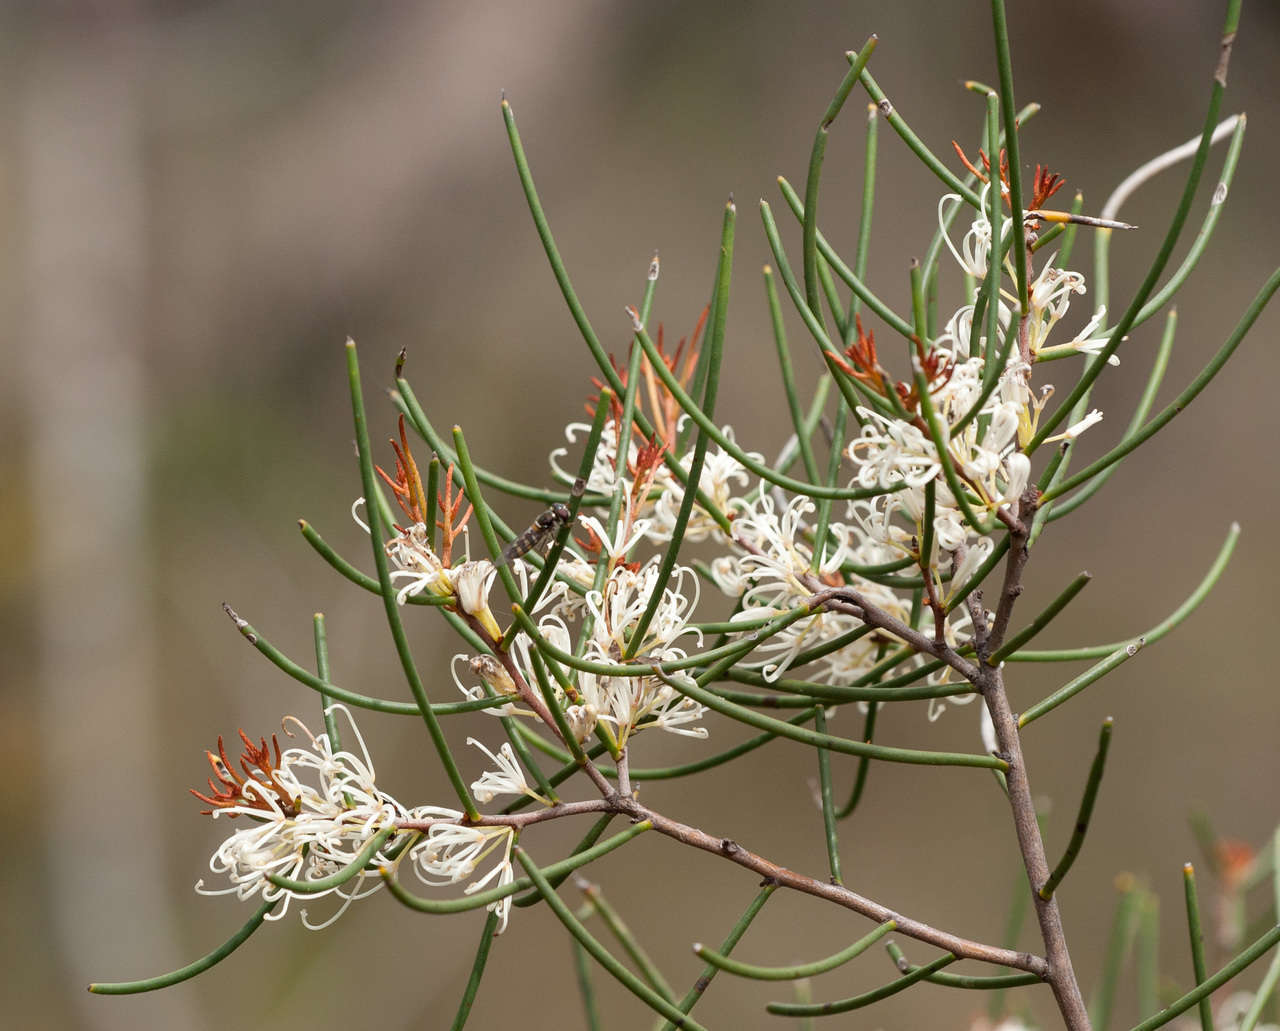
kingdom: Plantae
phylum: Tracheophyta
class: Magnoliopsida
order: Proteales
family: Proteaceae
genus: Hakea
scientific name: Hakea rostrata
